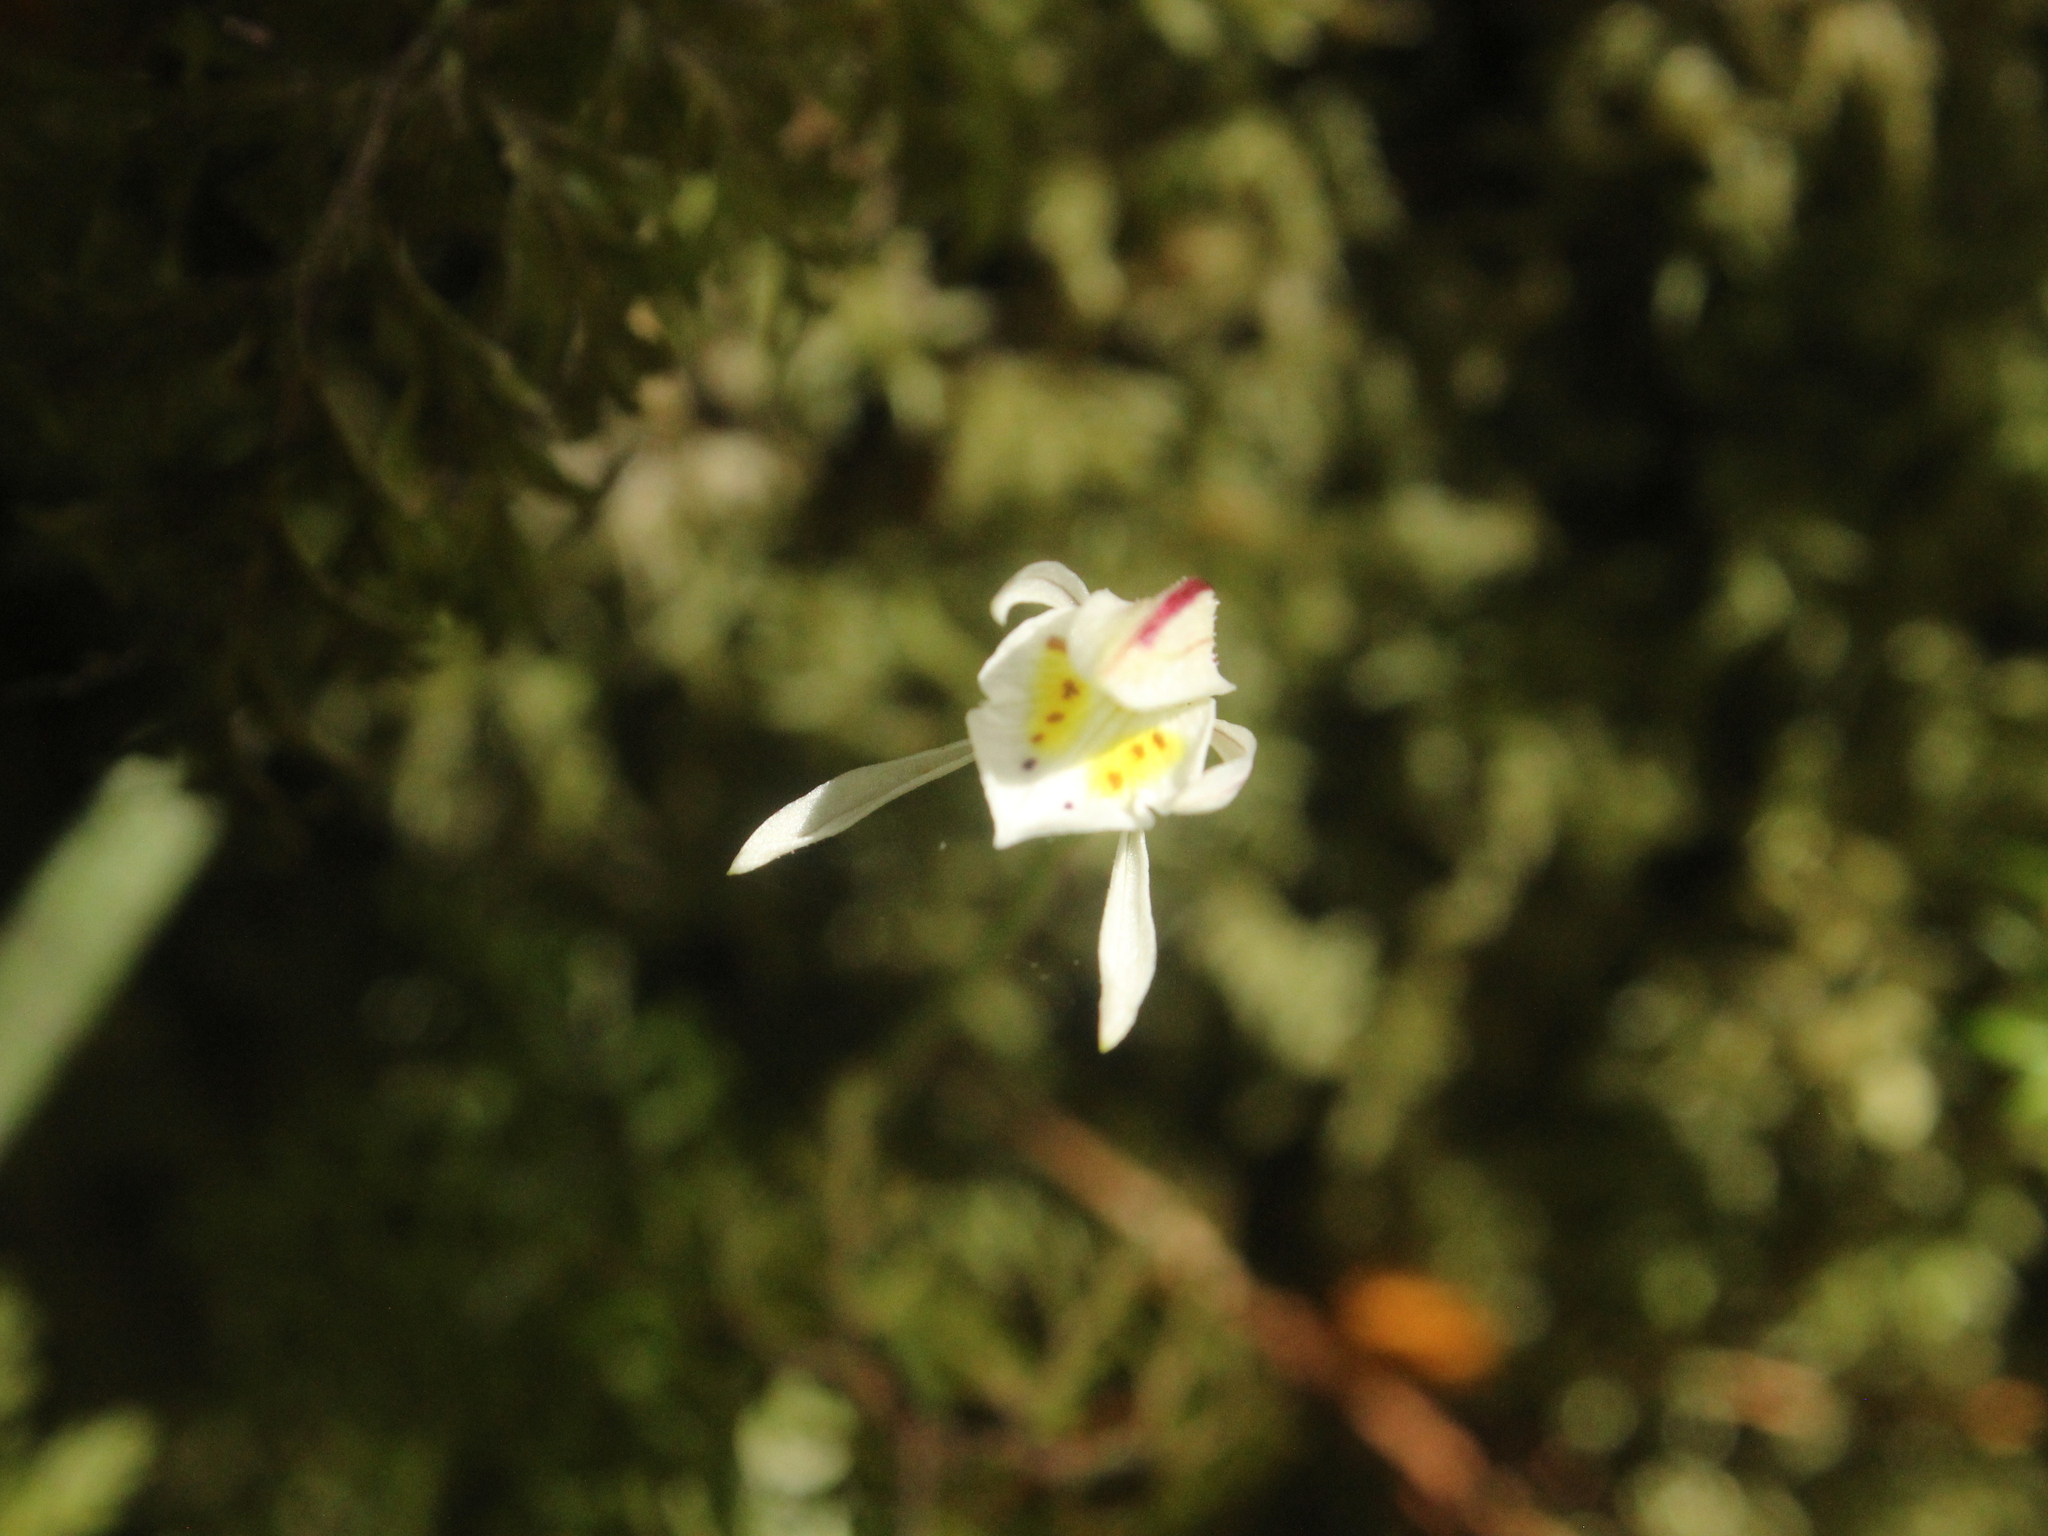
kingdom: Plantae
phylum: Tracheophyta
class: Liliopsida
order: Asparagales
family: Orchidaceae
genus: Aporostylis
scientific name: Aporostylis bifolia
